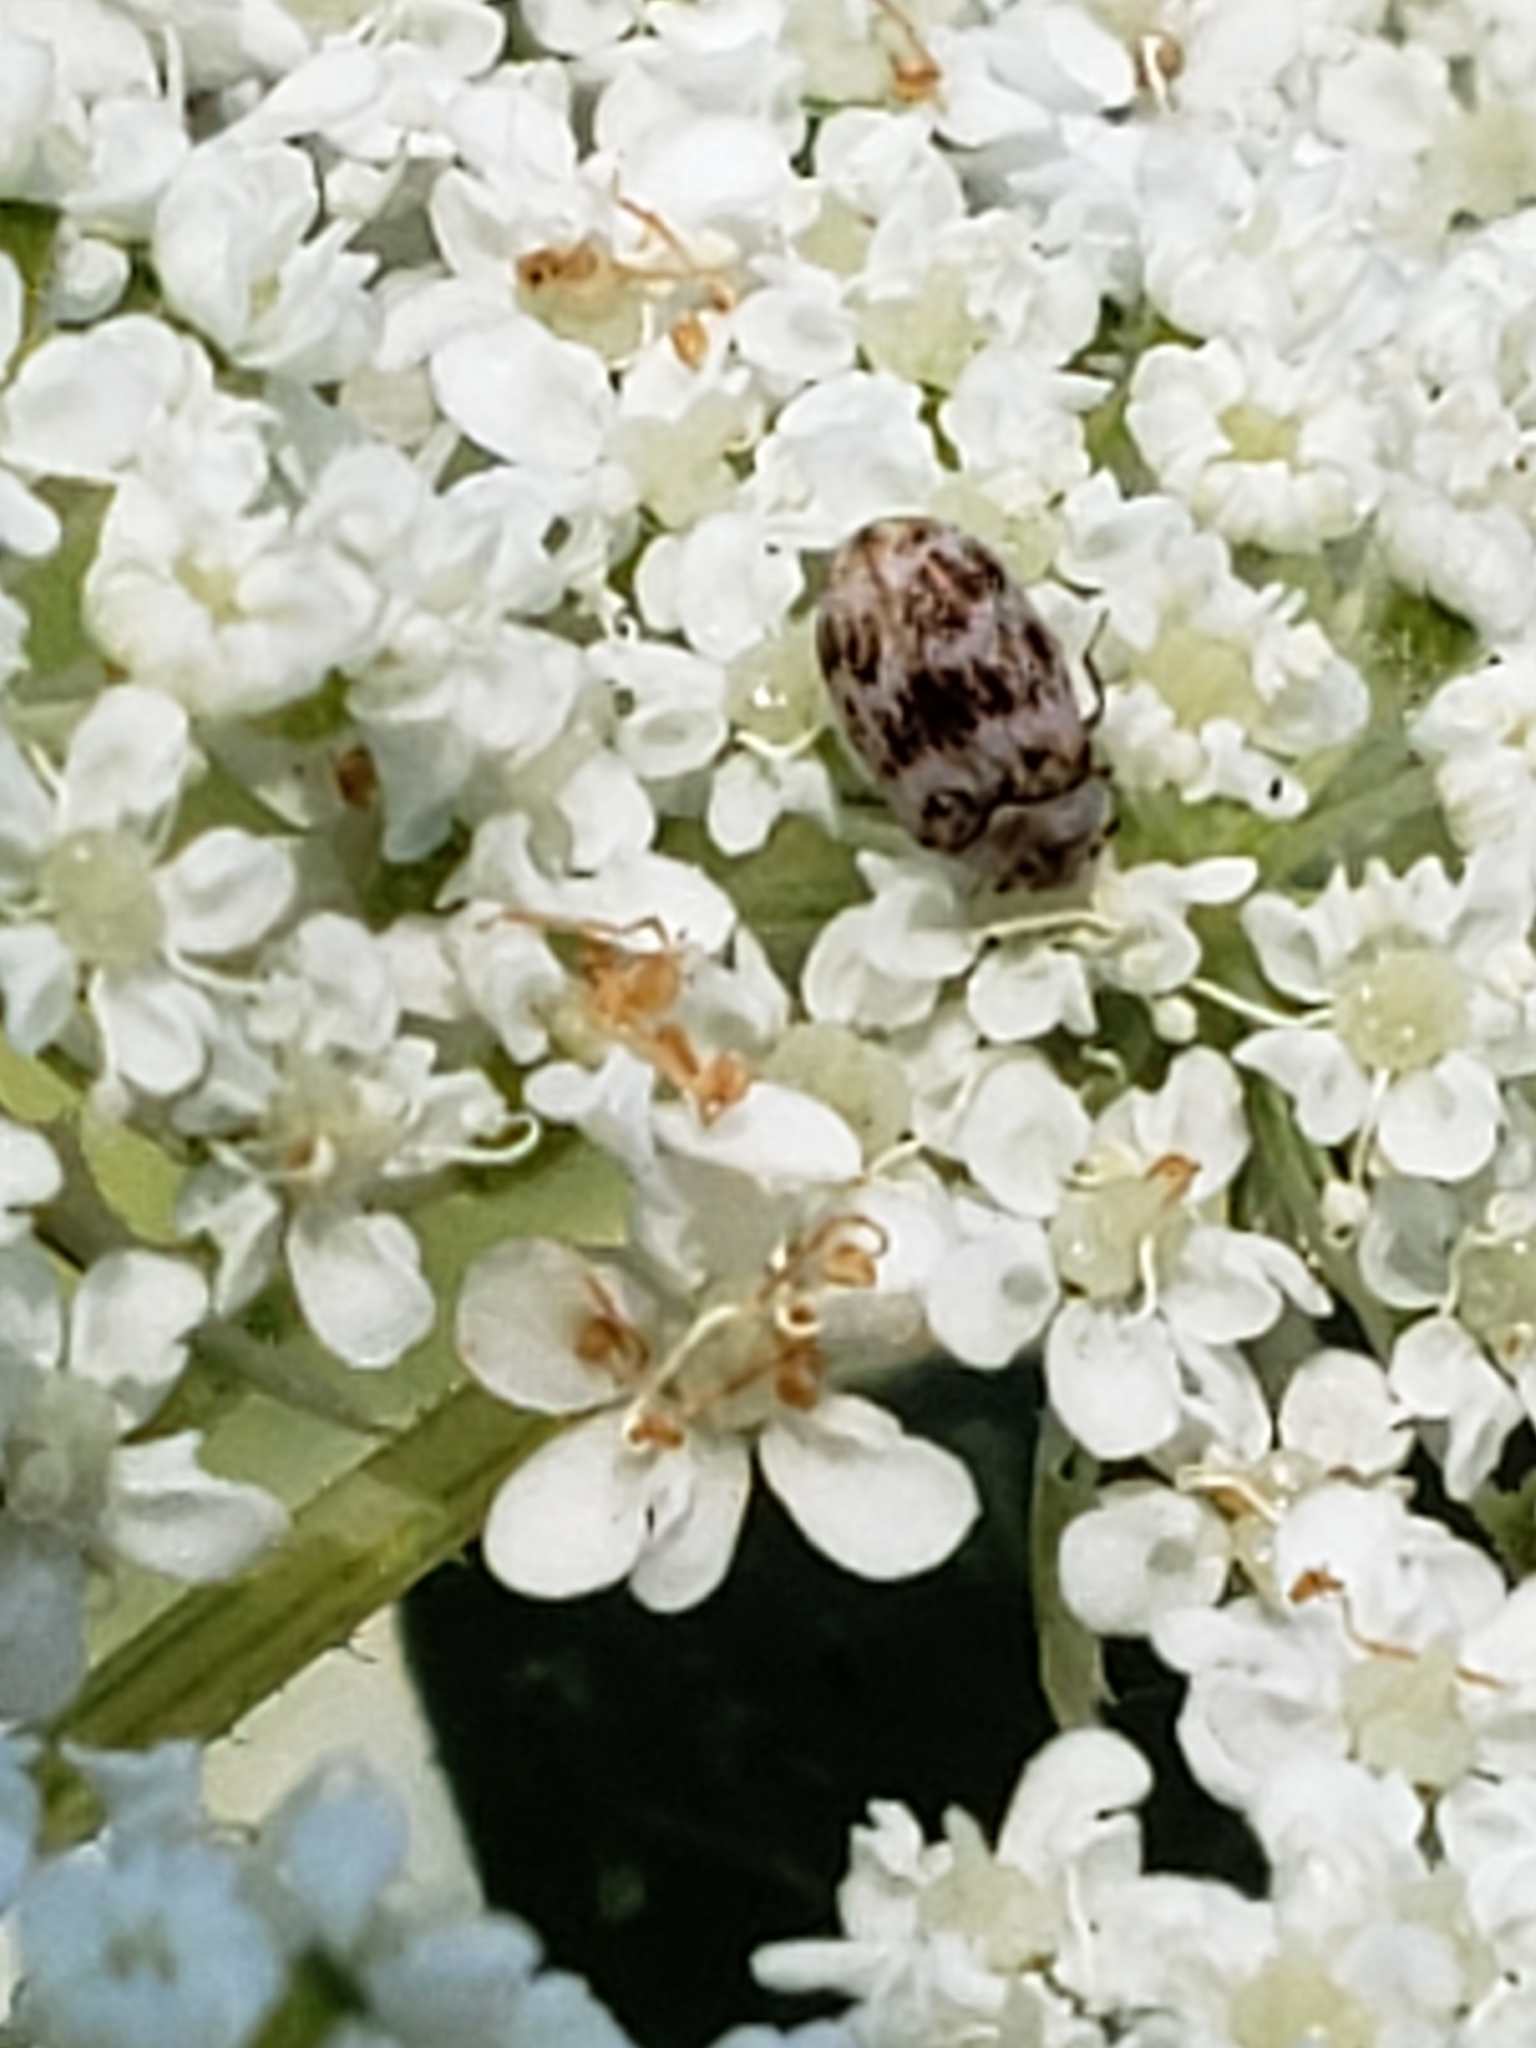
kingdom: Animalia
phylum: Arthropoda
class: Insecta
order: Coleoptera
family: Dermestidae
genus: Anthrenus
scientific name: Anthrenus coloratus
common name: Auger beetle
